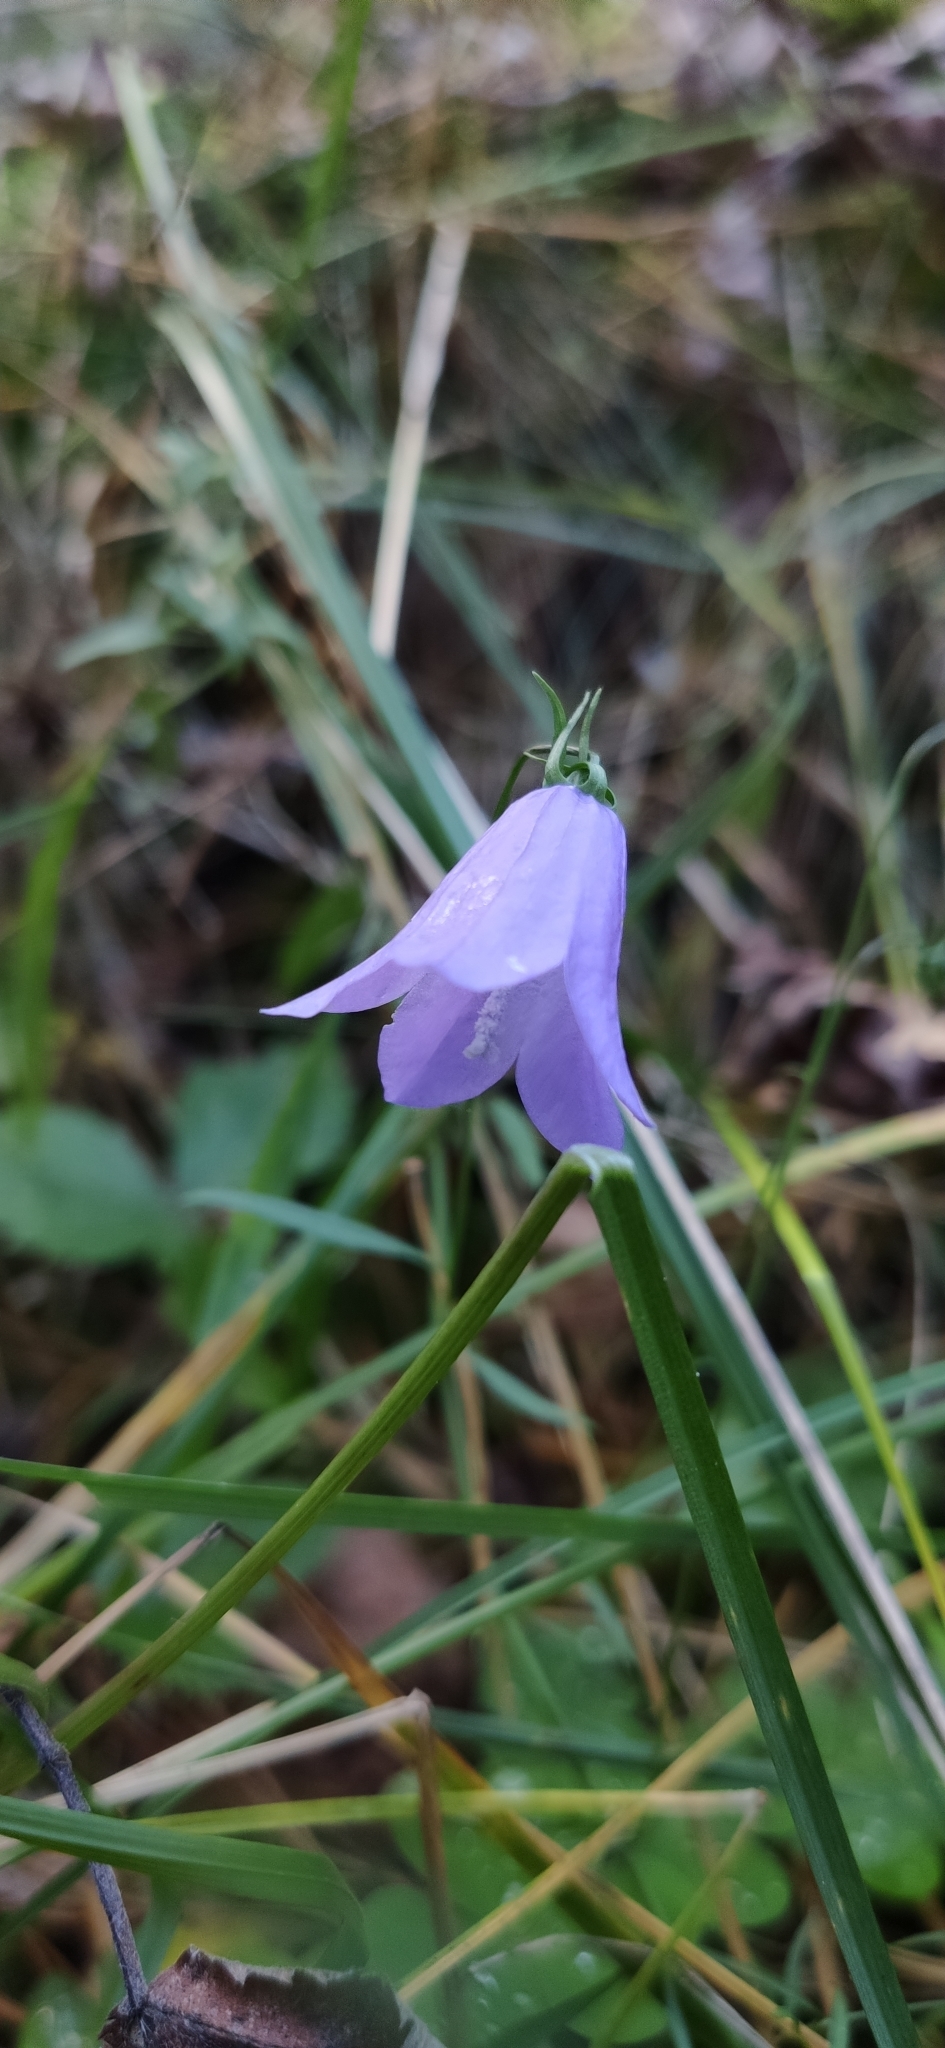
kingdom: Plantae
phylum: Tracheophyta
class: Magnoliopsida
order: Asterales
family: Campanulaceae
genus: Campanula
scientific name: Campanula rotundifolia
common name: Harebell
